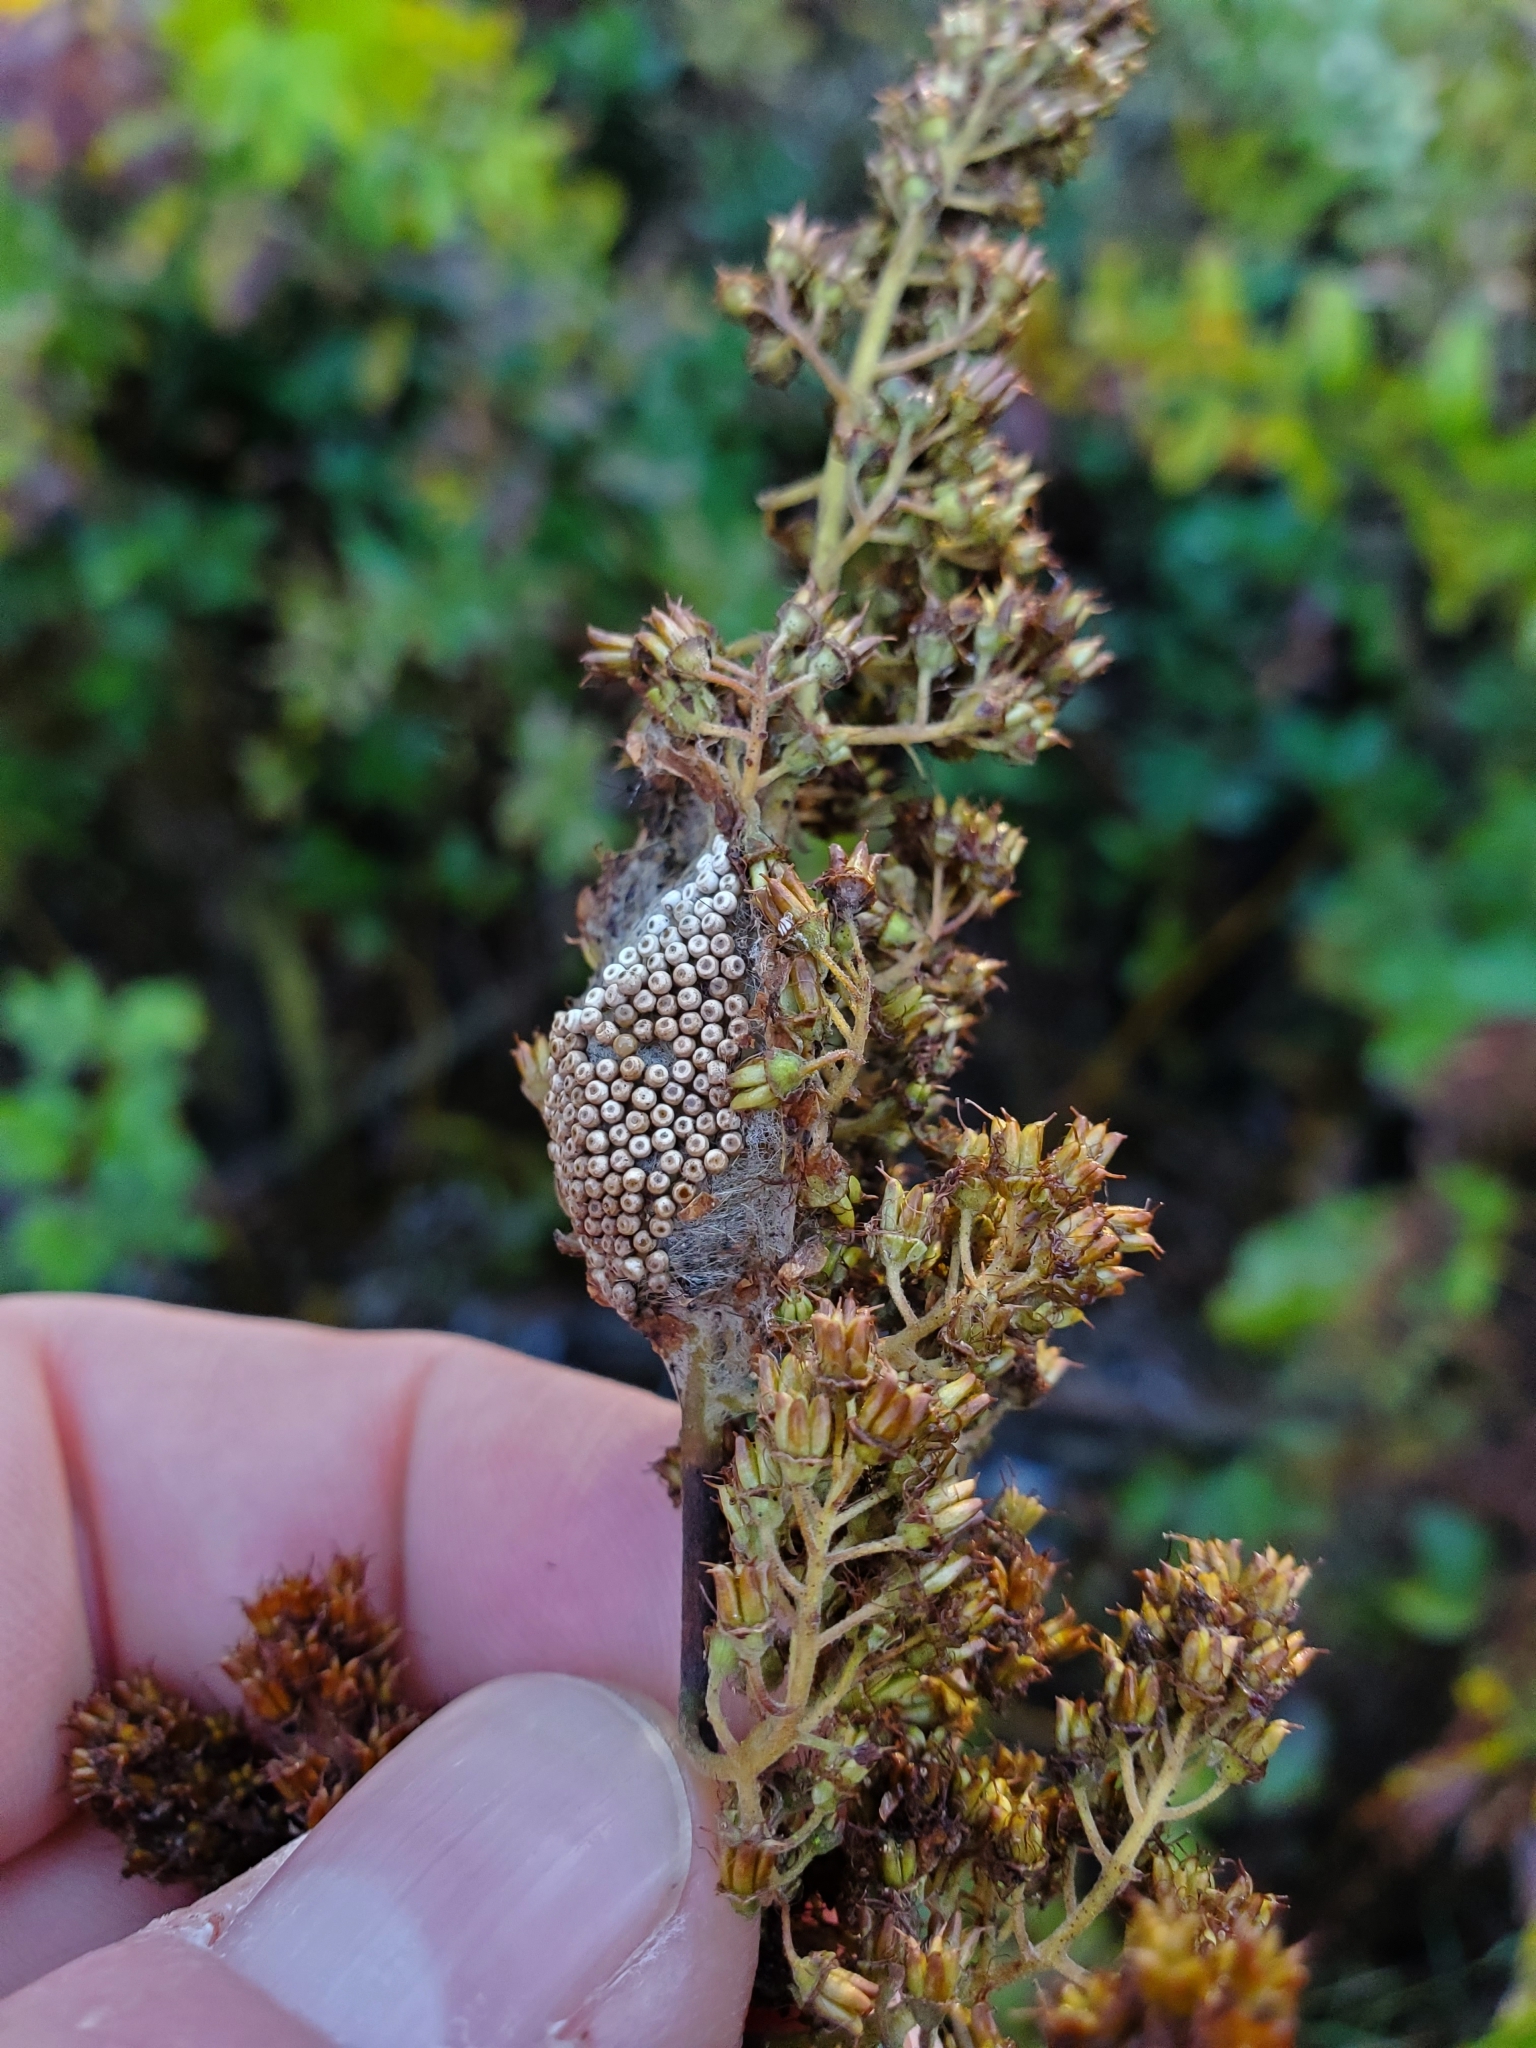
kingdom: Animalia
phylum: Arthropoda
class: Insecta
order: Lepidoptera
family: Erebidae
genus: Orgyia
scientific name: Orgyia antiqua
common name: Vapourer
